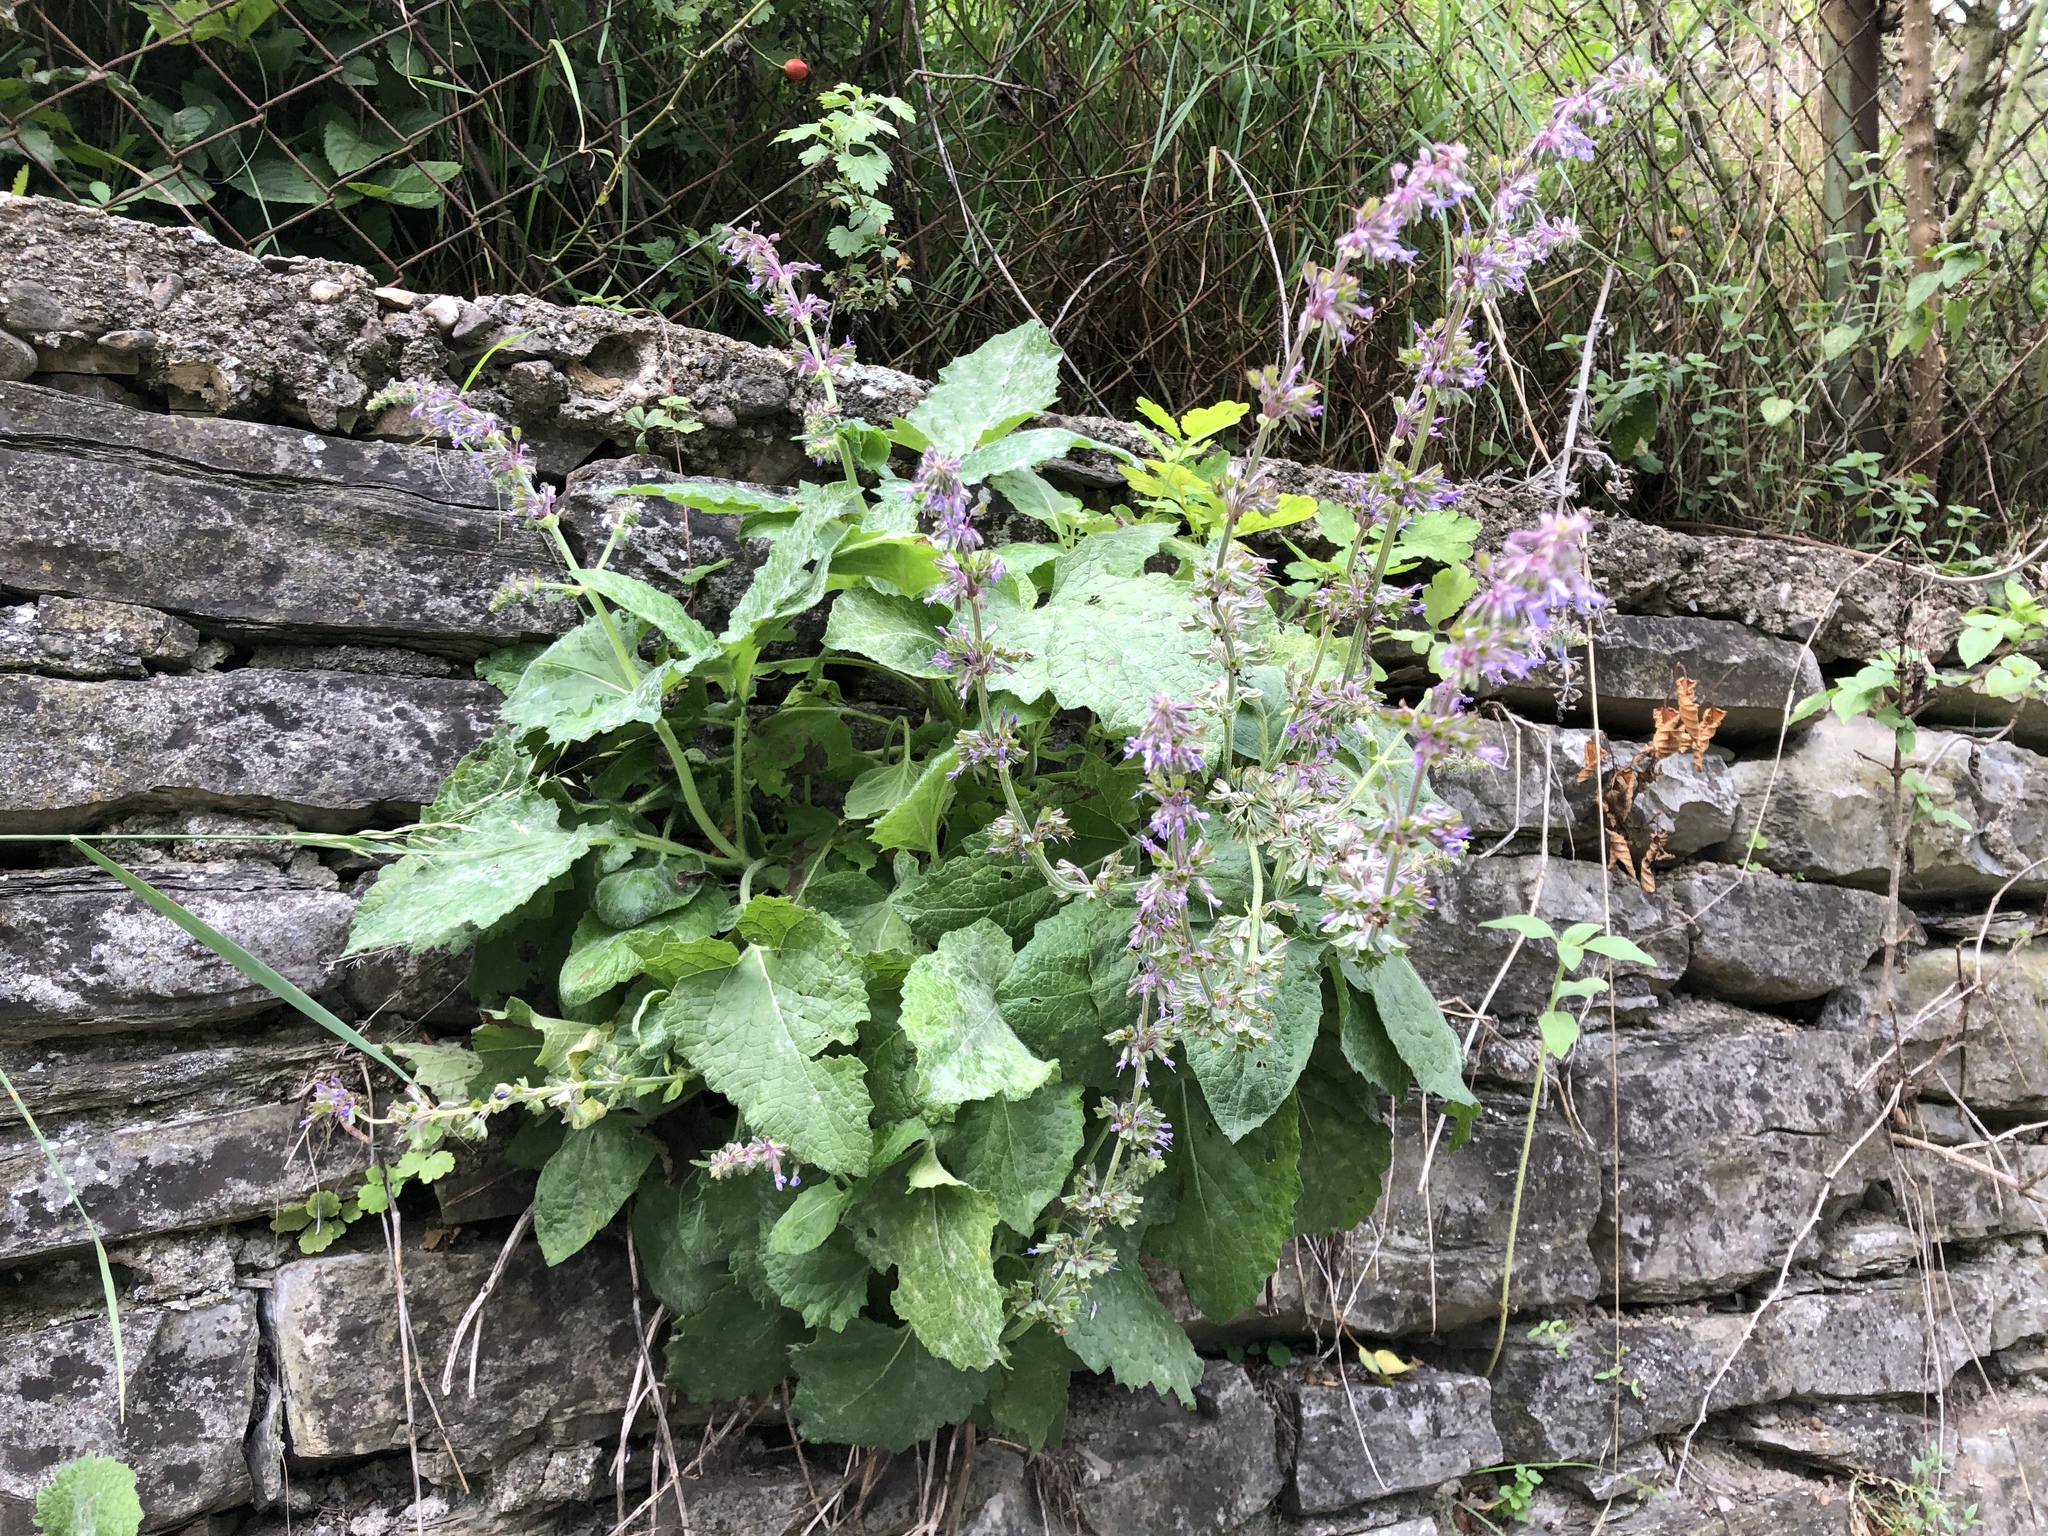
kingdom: Plantae
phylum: Tracheophyta
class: Magnoliopsida
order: Lamiales
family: Lamiaceae
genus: Salvia
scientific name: Salvia verticillata
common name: Whorled clary
